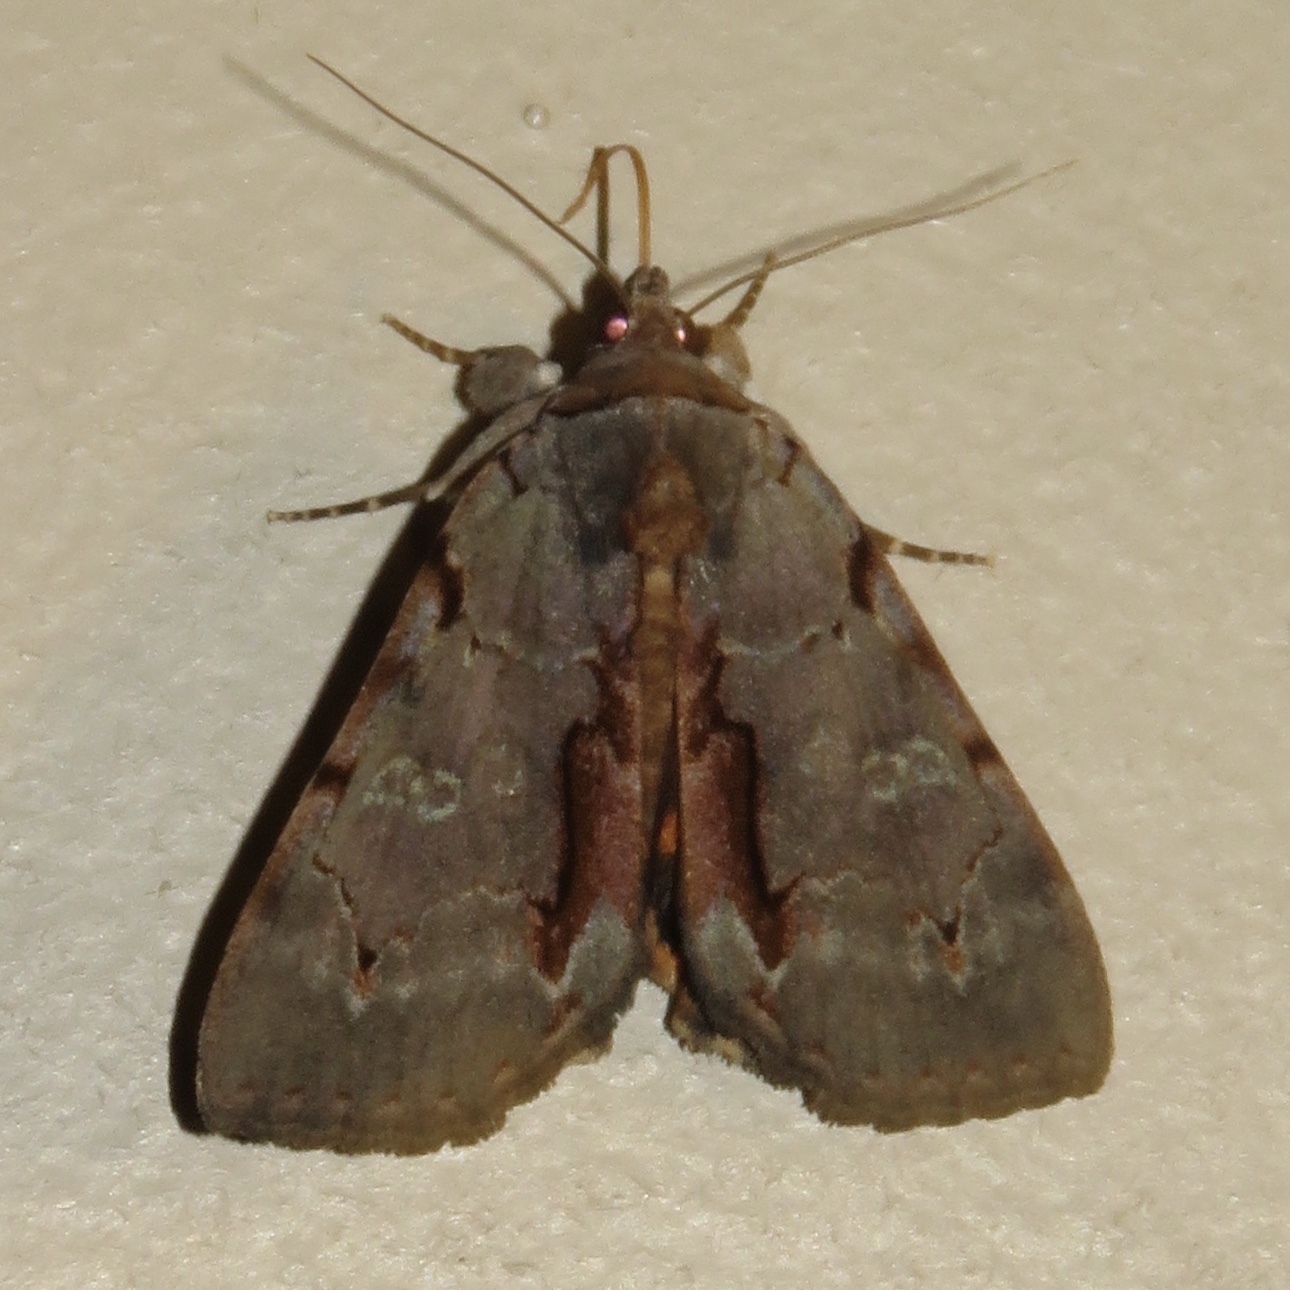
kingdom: Animalia
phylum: Arthropoda
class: Insecta
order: Lepidoptera
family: Erebidae
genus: Catocala
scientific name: Catocala grynea
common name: Woody underwing
